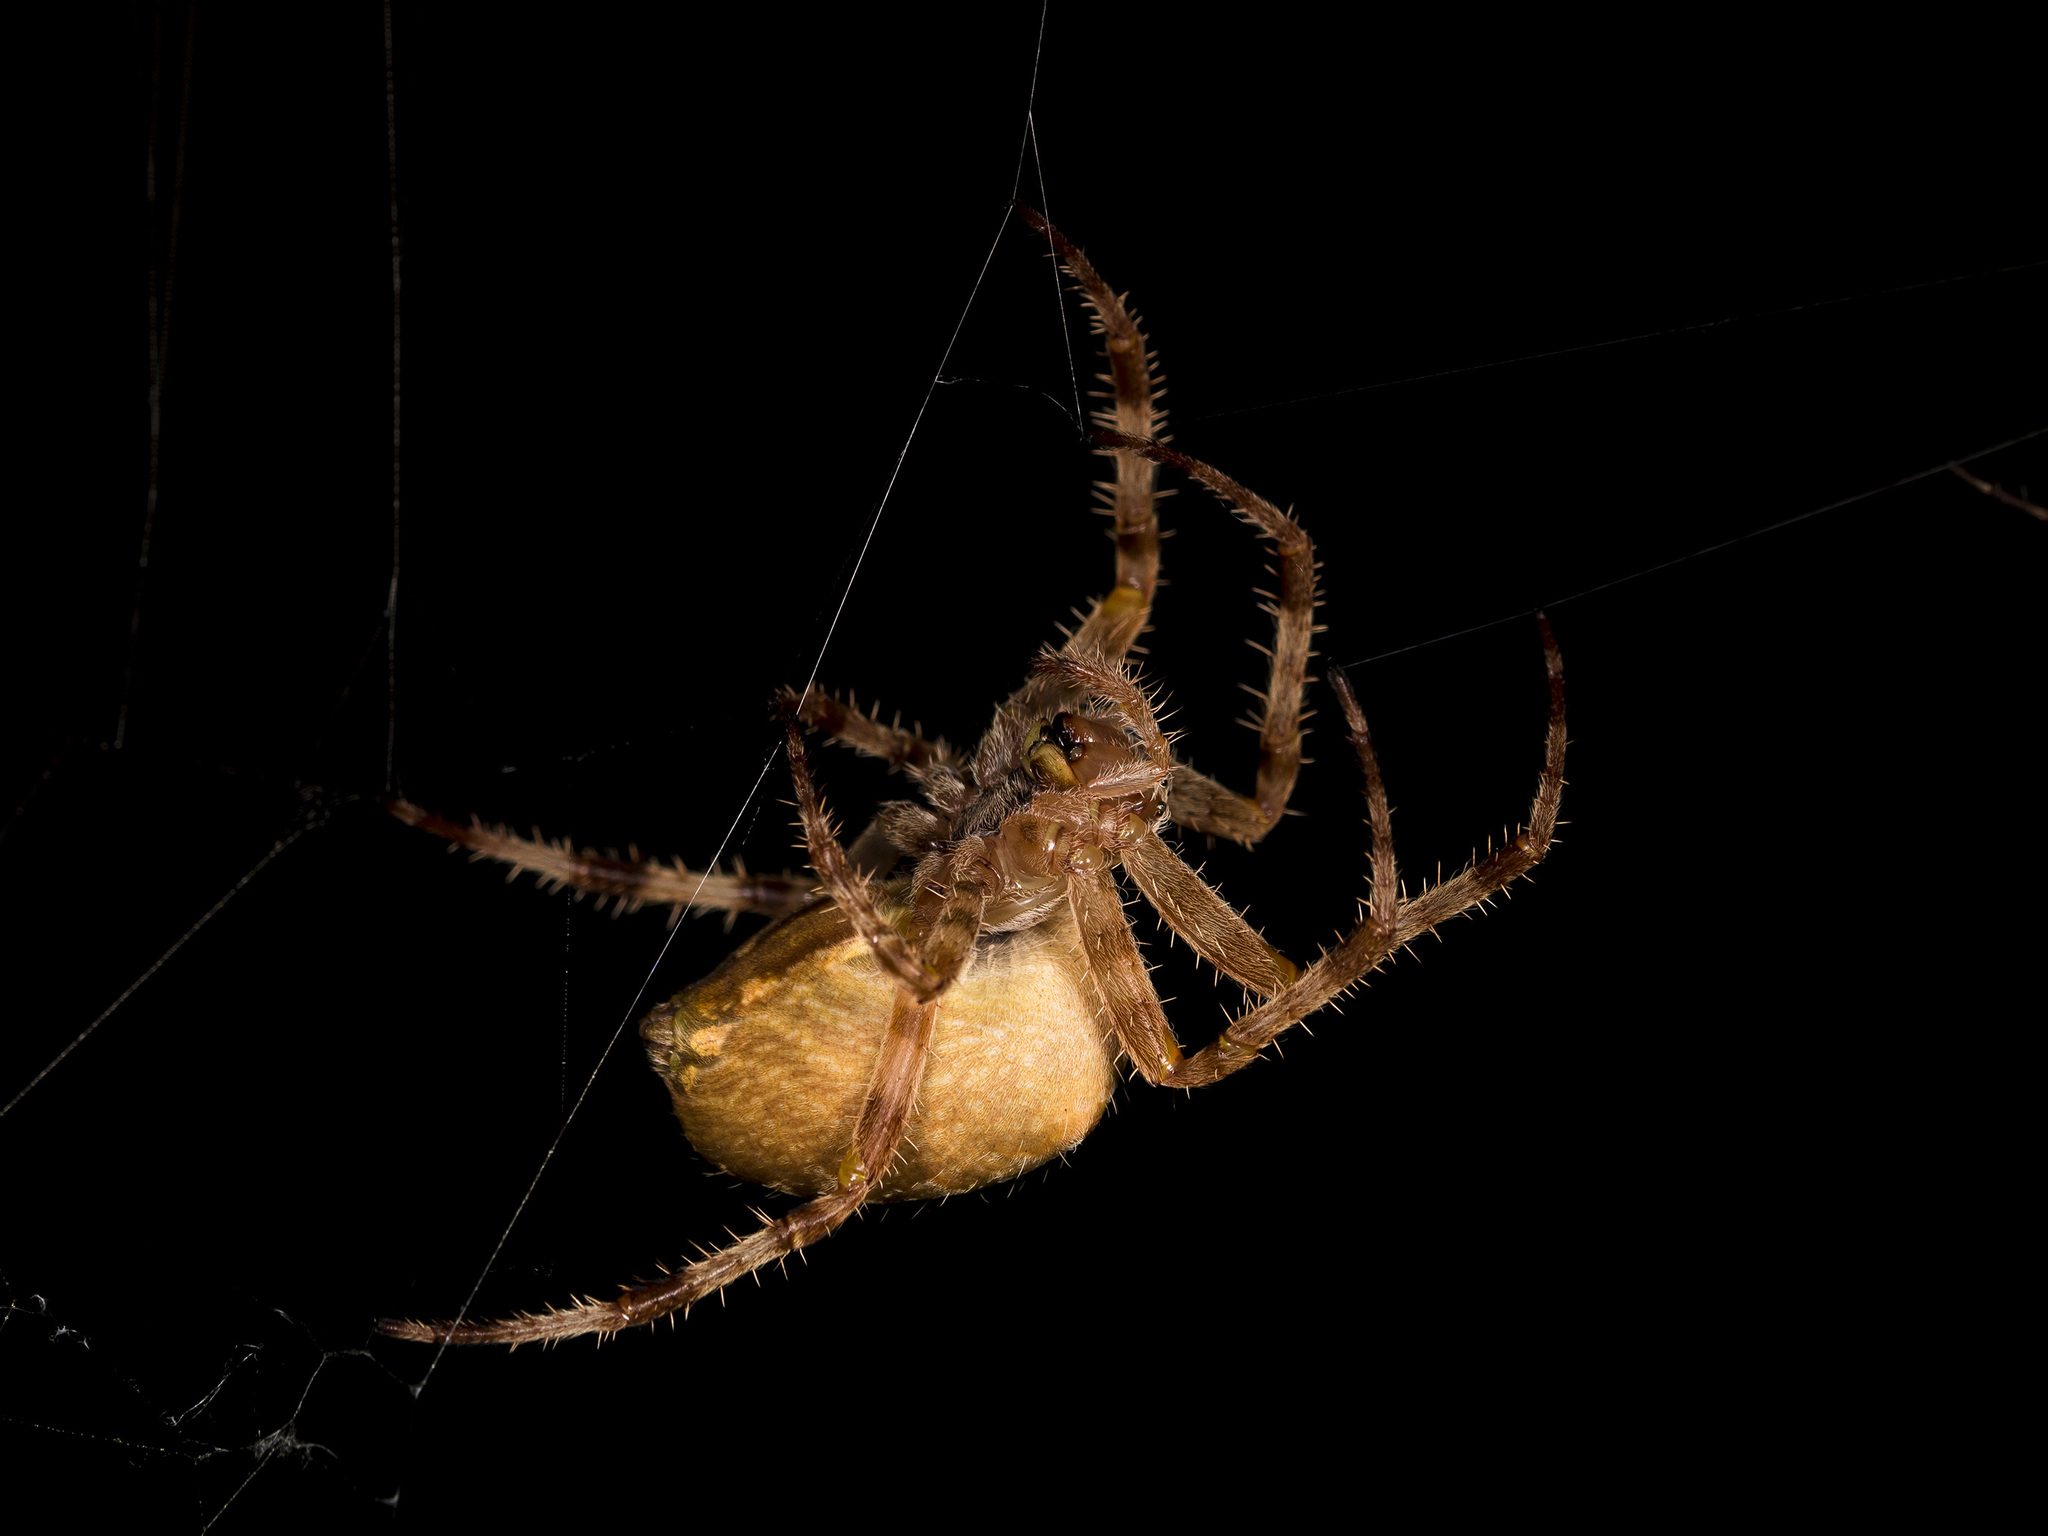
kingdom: Animalia
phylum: Arthropoda
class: Arachnida
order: Araneae
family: Araneidae
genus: Araneus
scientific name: Araneus diadematus
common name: Cross orbweaver
